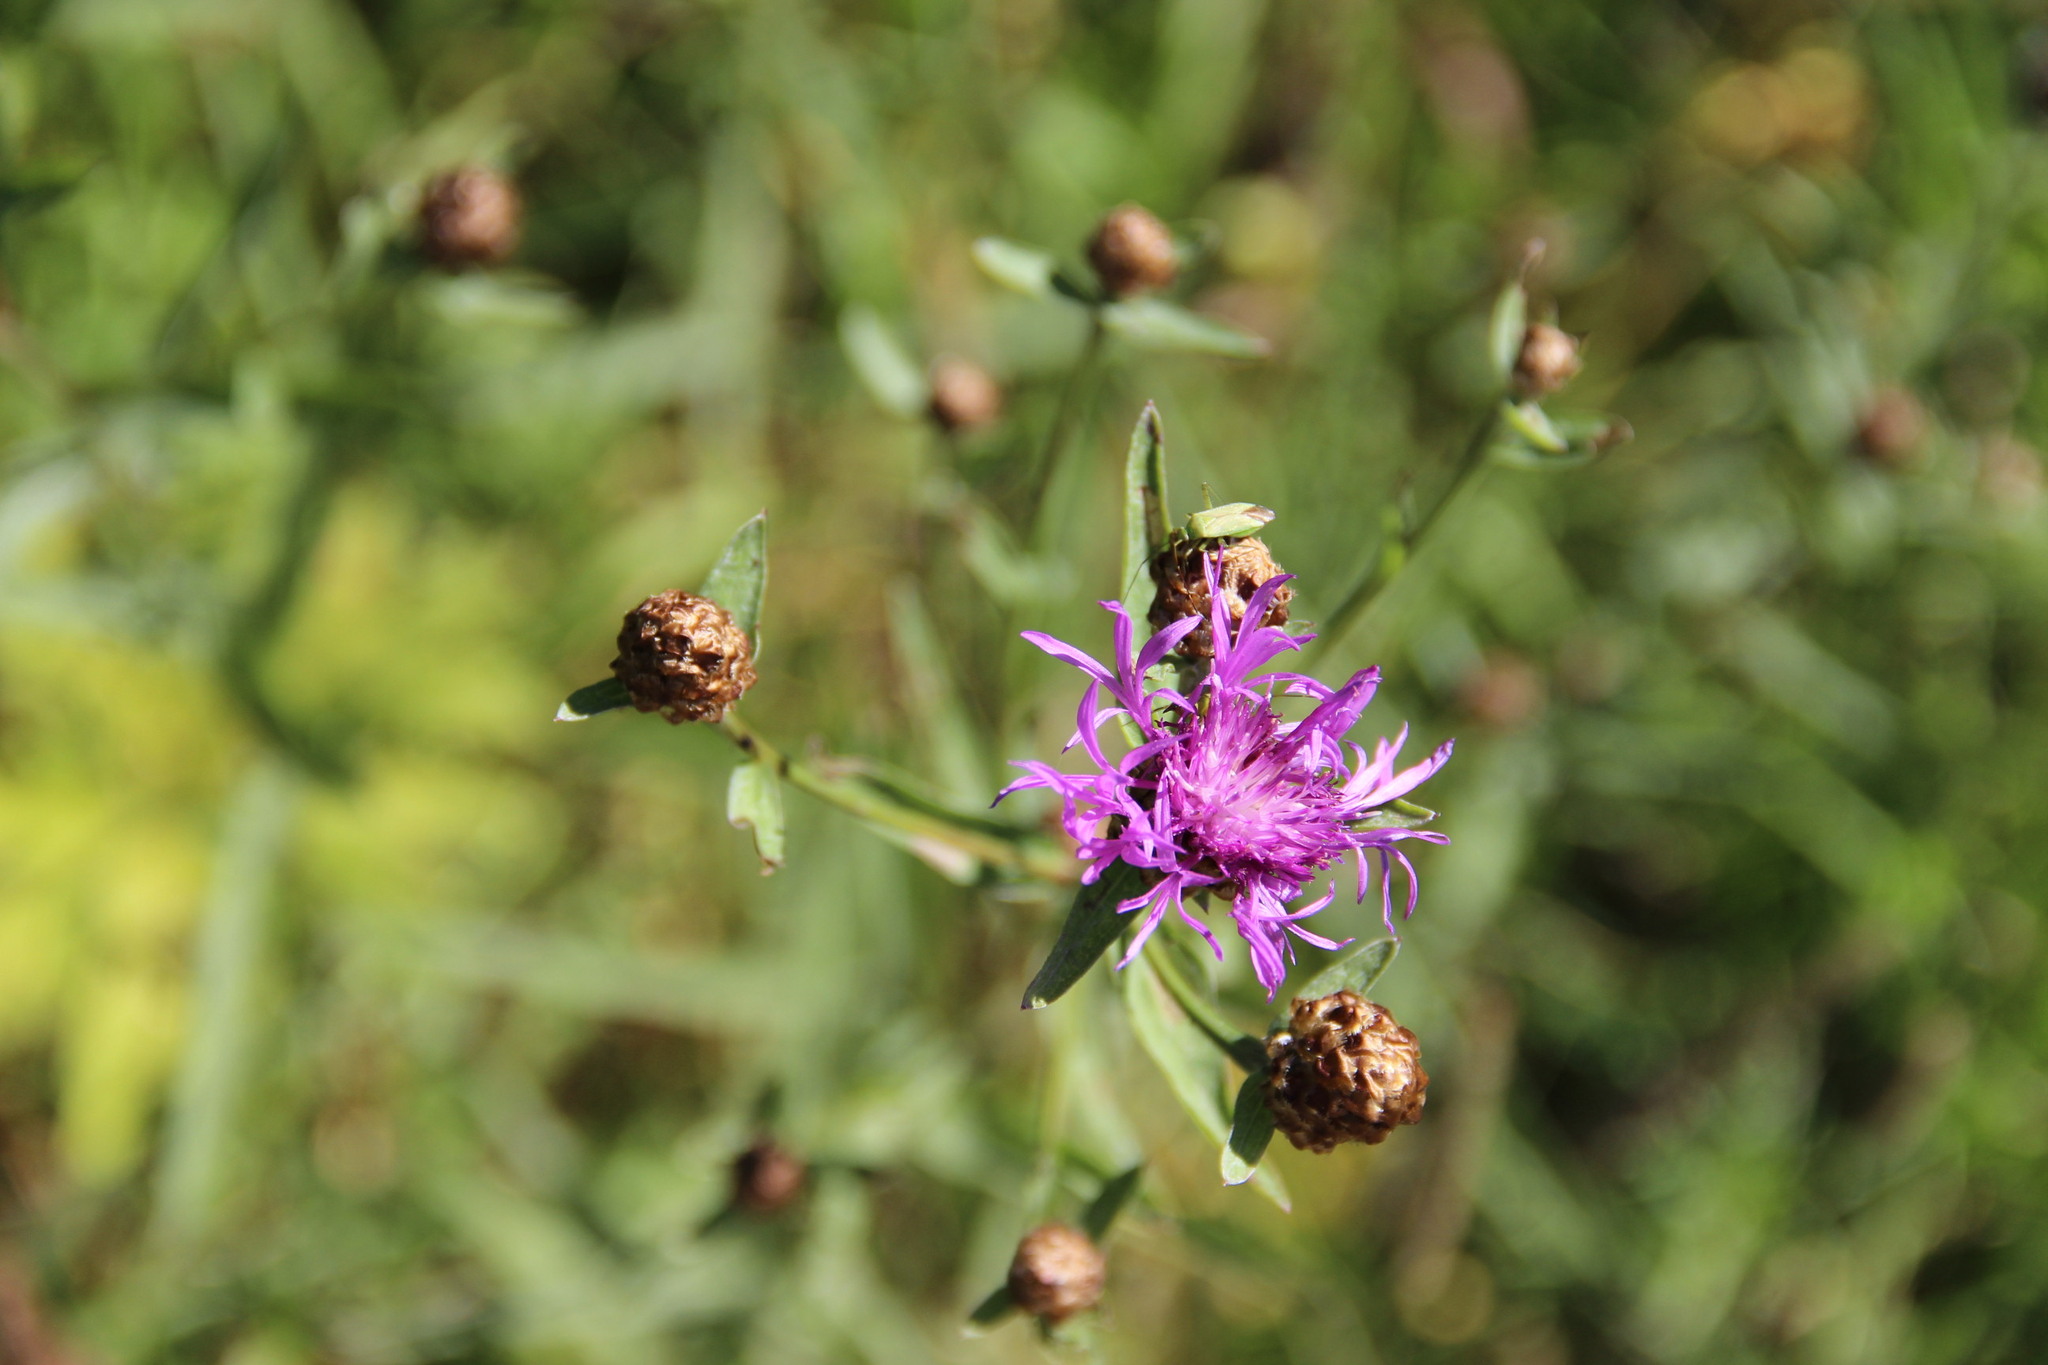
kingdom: Plantae
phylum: Tracheophyta
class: Magnoliopsida
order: Asterales
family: Asteraceae
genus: Centaurea
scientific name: Centaurea jacea
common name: Brown knapweed
